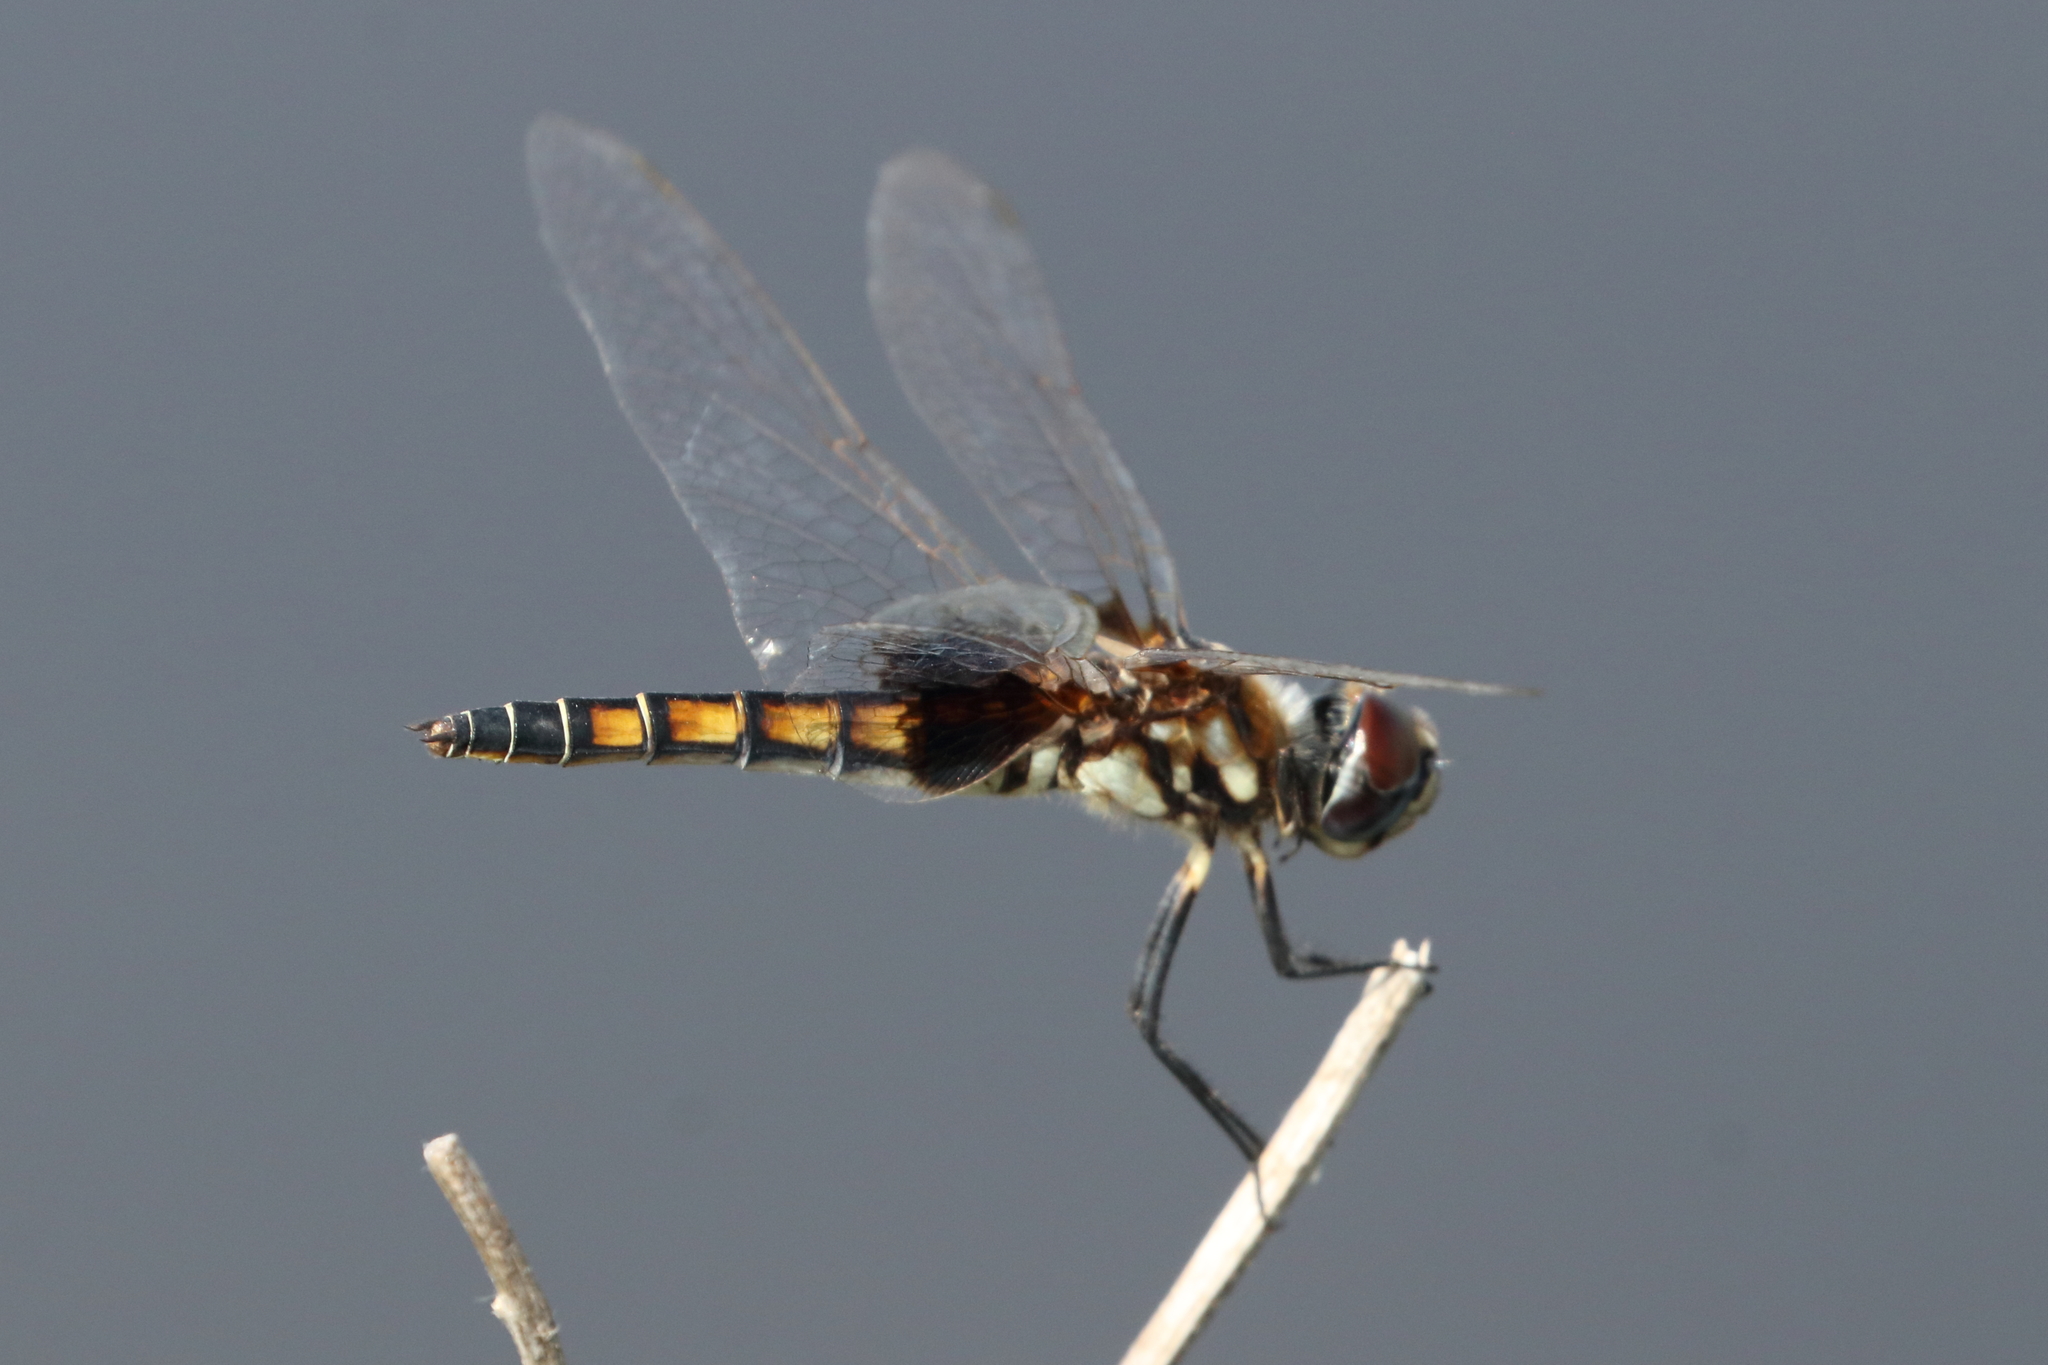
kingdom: Animalia
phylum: Arthropoda
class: Insecta
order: Odonata
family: Libellulidae
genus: Macrodiplax
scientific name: Macrodiplax balteata
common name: Marl pennant
